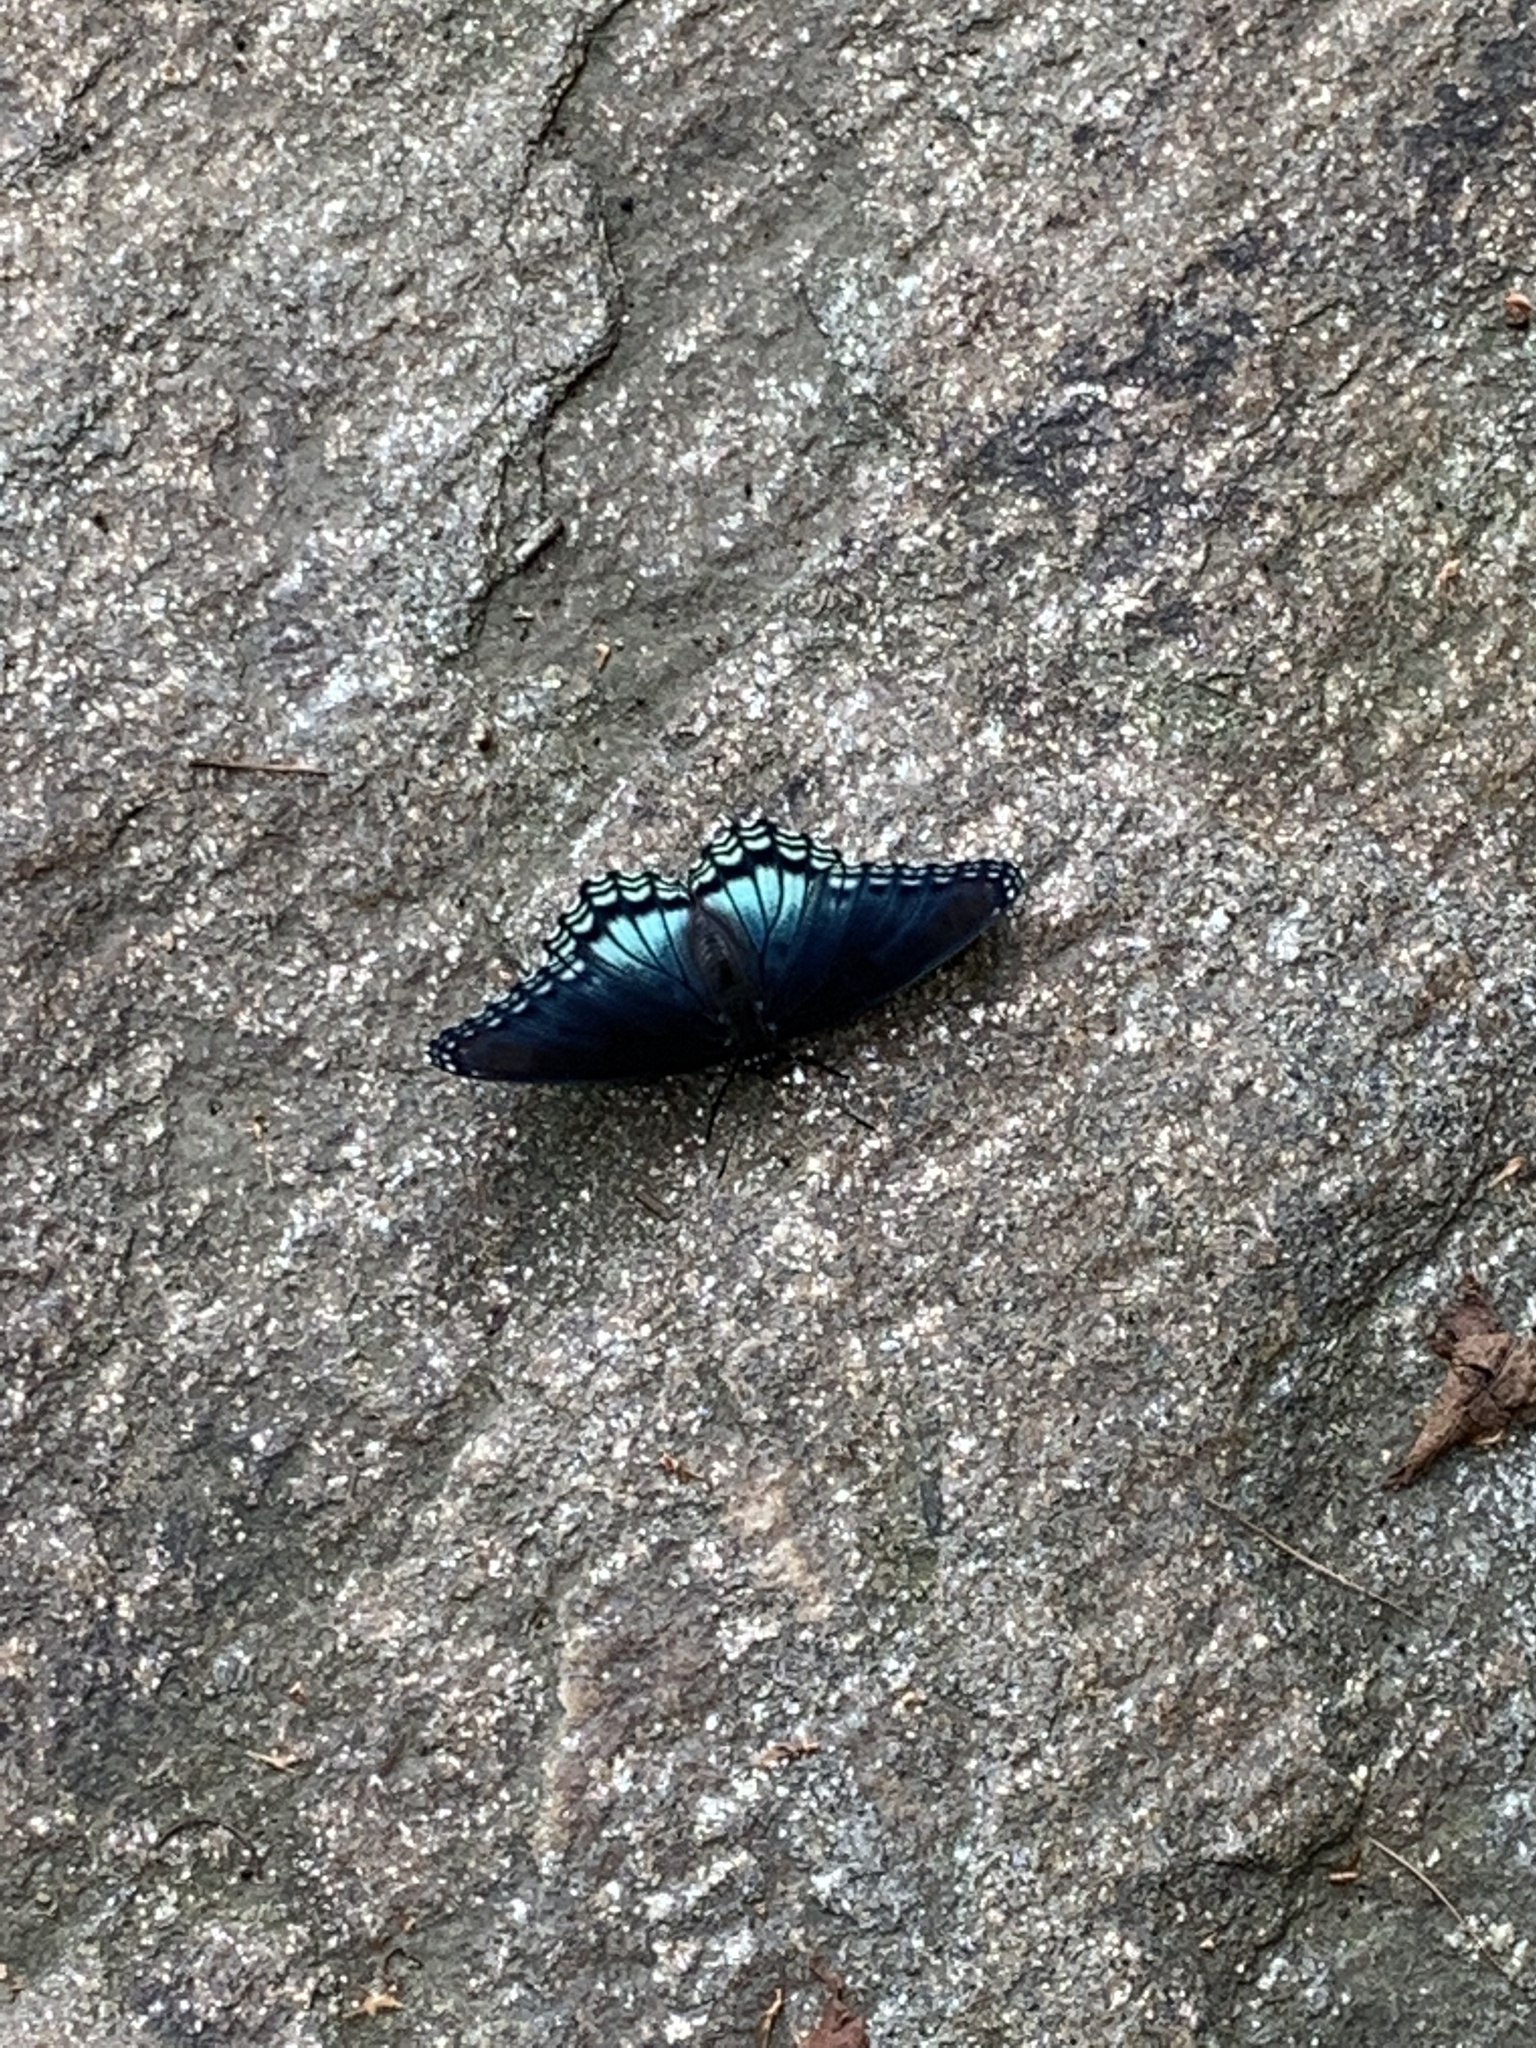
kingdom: Animalia
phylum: Arthropoda
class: Insecta
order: Lepidoptera
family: Nymphalidae
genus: Limenitis
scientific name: Limenitis astyanax
